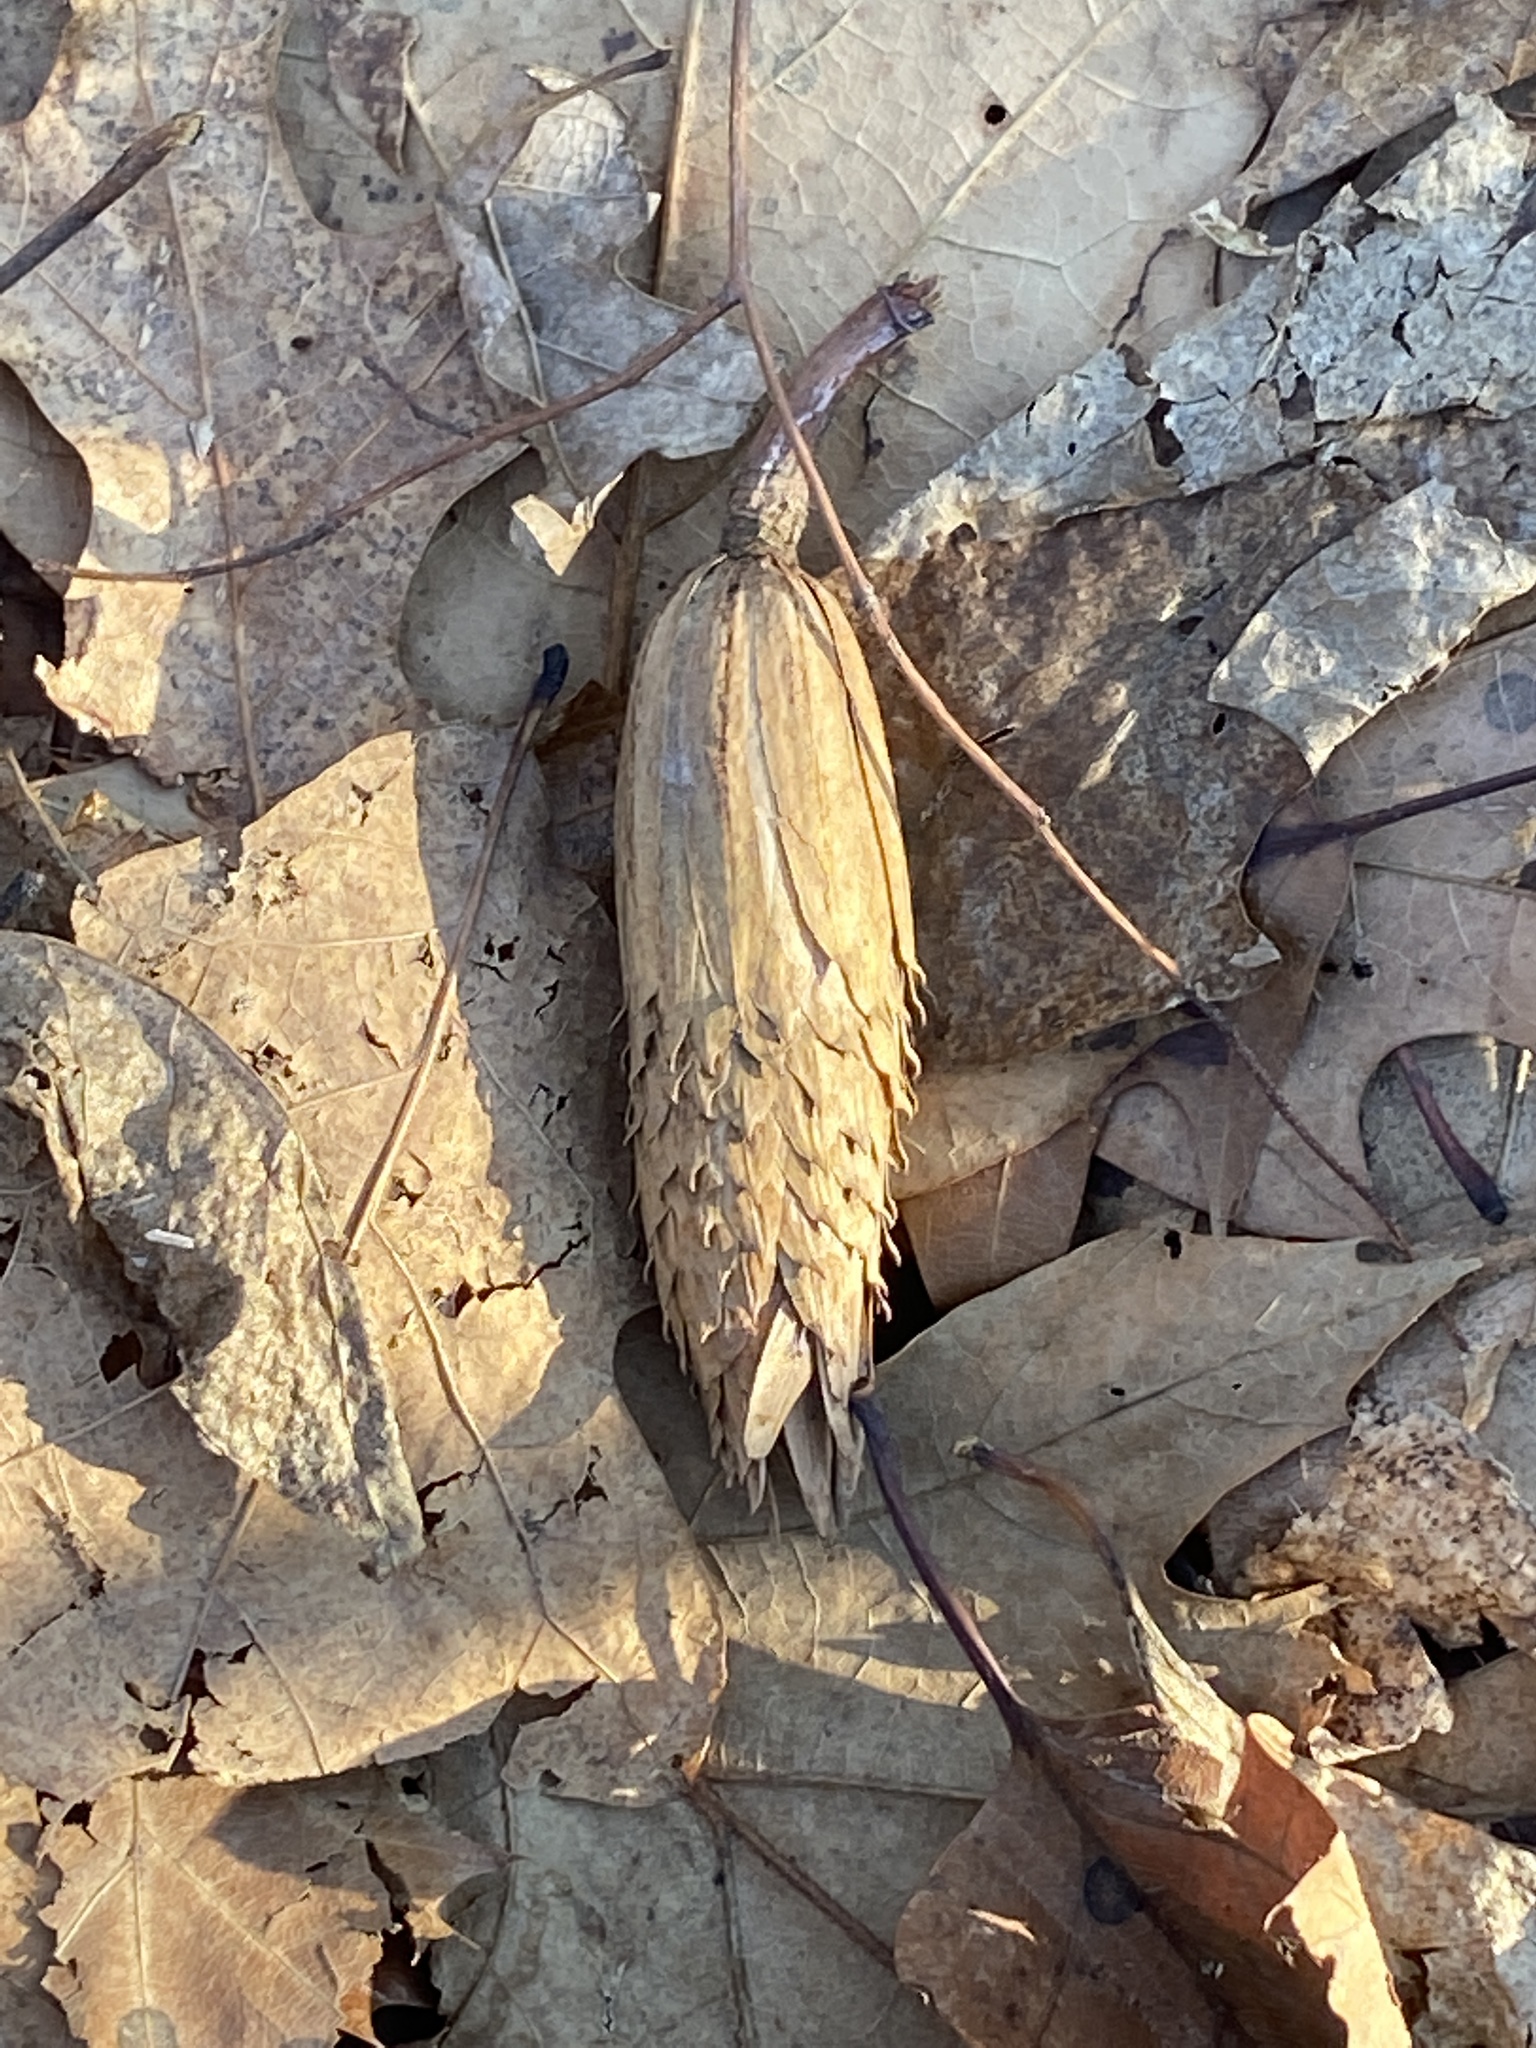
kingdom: Plantae
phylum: Tracheophyta
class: Magnoliopsida
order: Magnoliales
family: Magnoliaceae
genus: Liriodendron
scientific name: Liriodendron tulipifera
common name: Tulip tree
